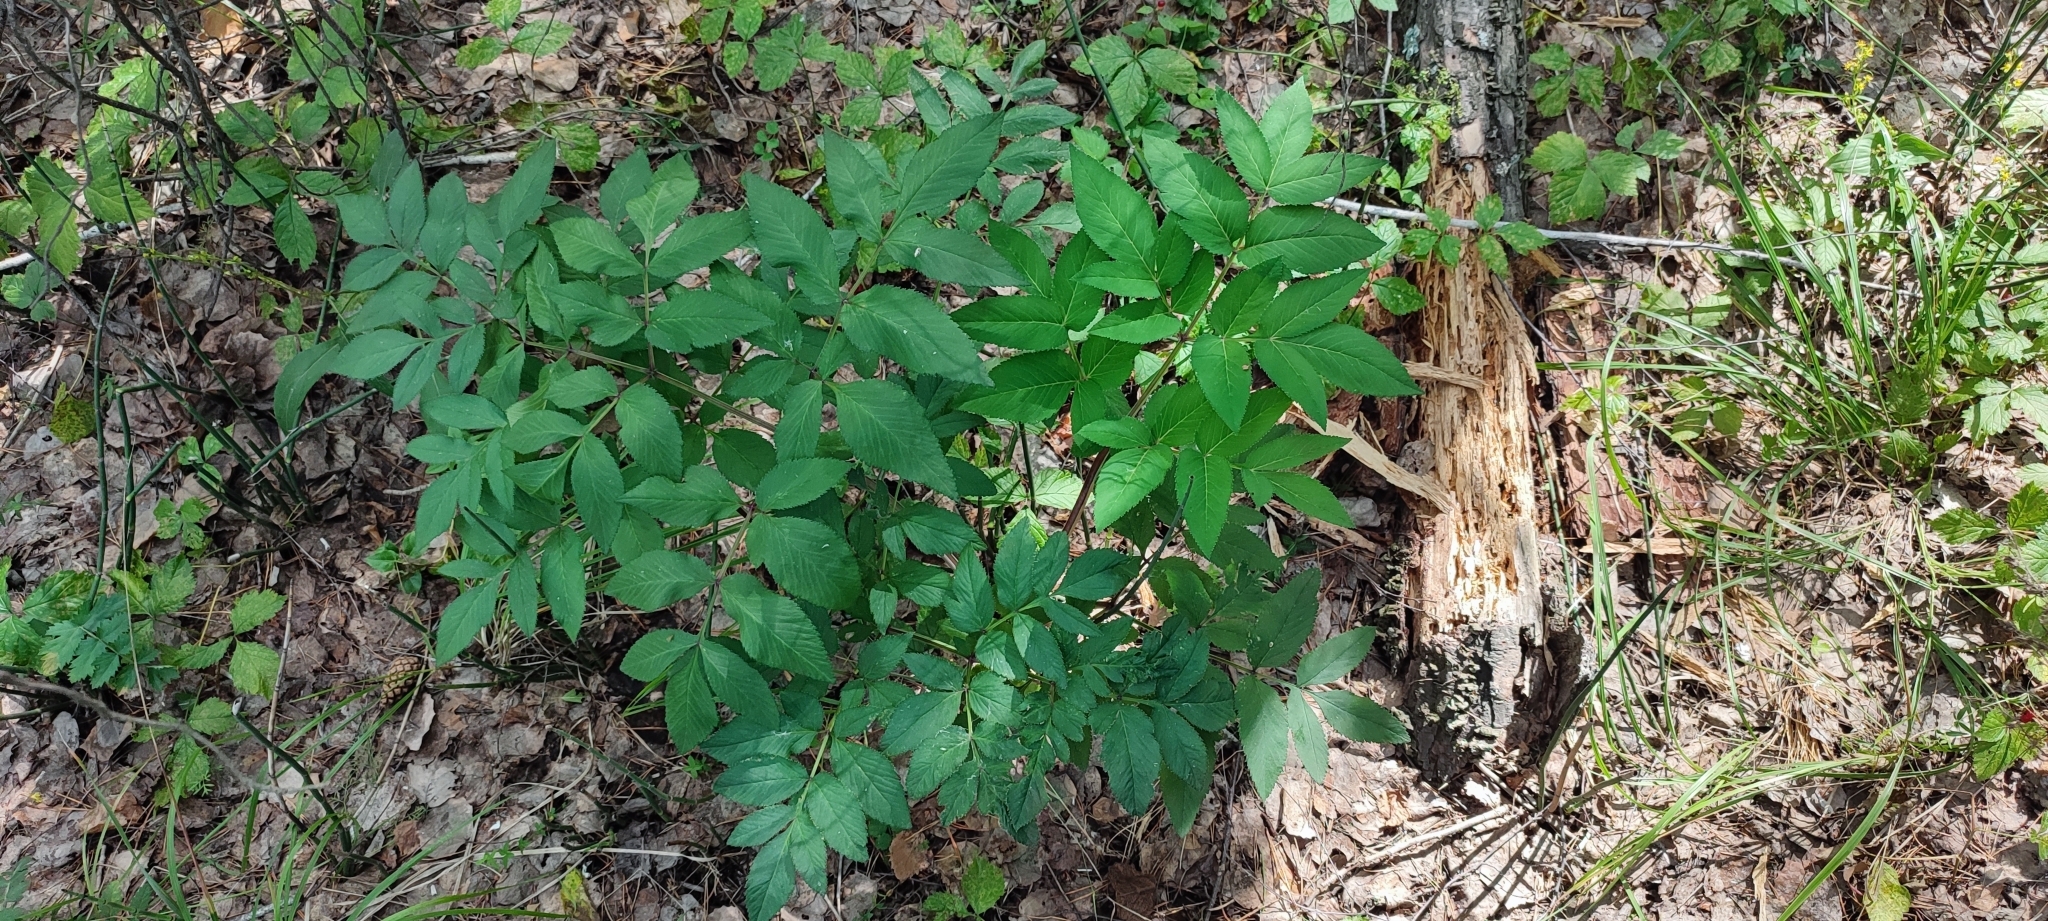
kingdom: Plantae
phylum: Tracheophyta
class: Magnoliopsida
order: Apiales
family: Apiaceae
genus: Angelica
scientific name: Angelica sylvestris
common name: Wild angelica
